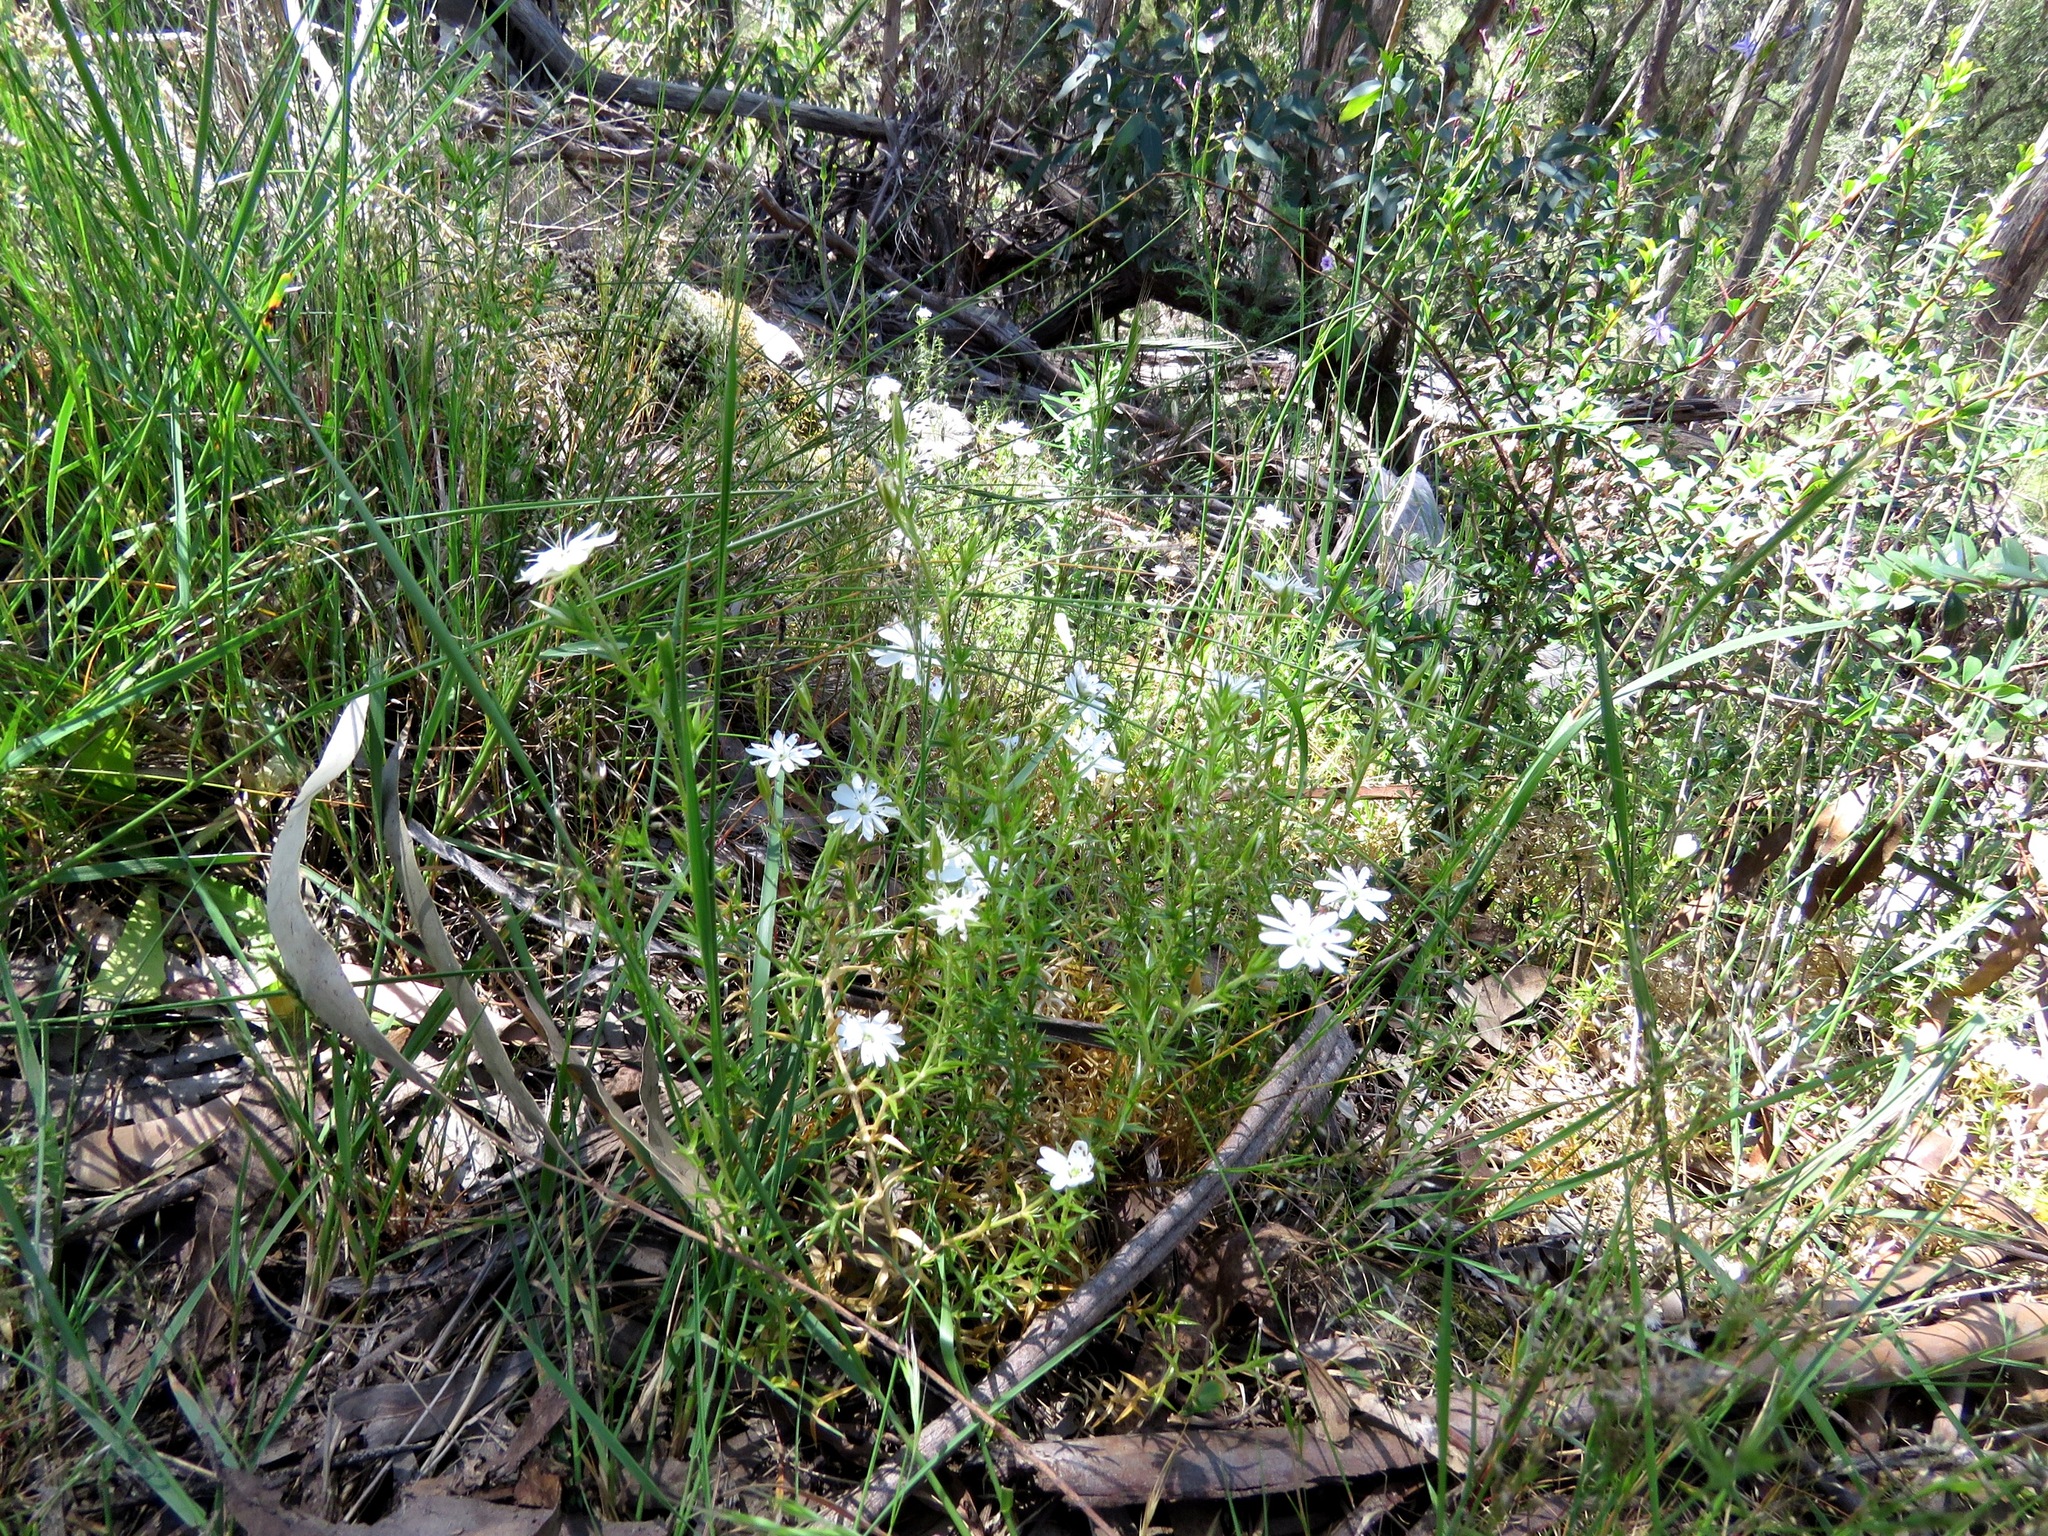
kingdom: Plantae
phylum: Tracheophyta
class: Magnoliopsida
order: Caryophyllales
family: Caryophyllaceae
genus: Stellaria
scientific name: Stellaria pungens
